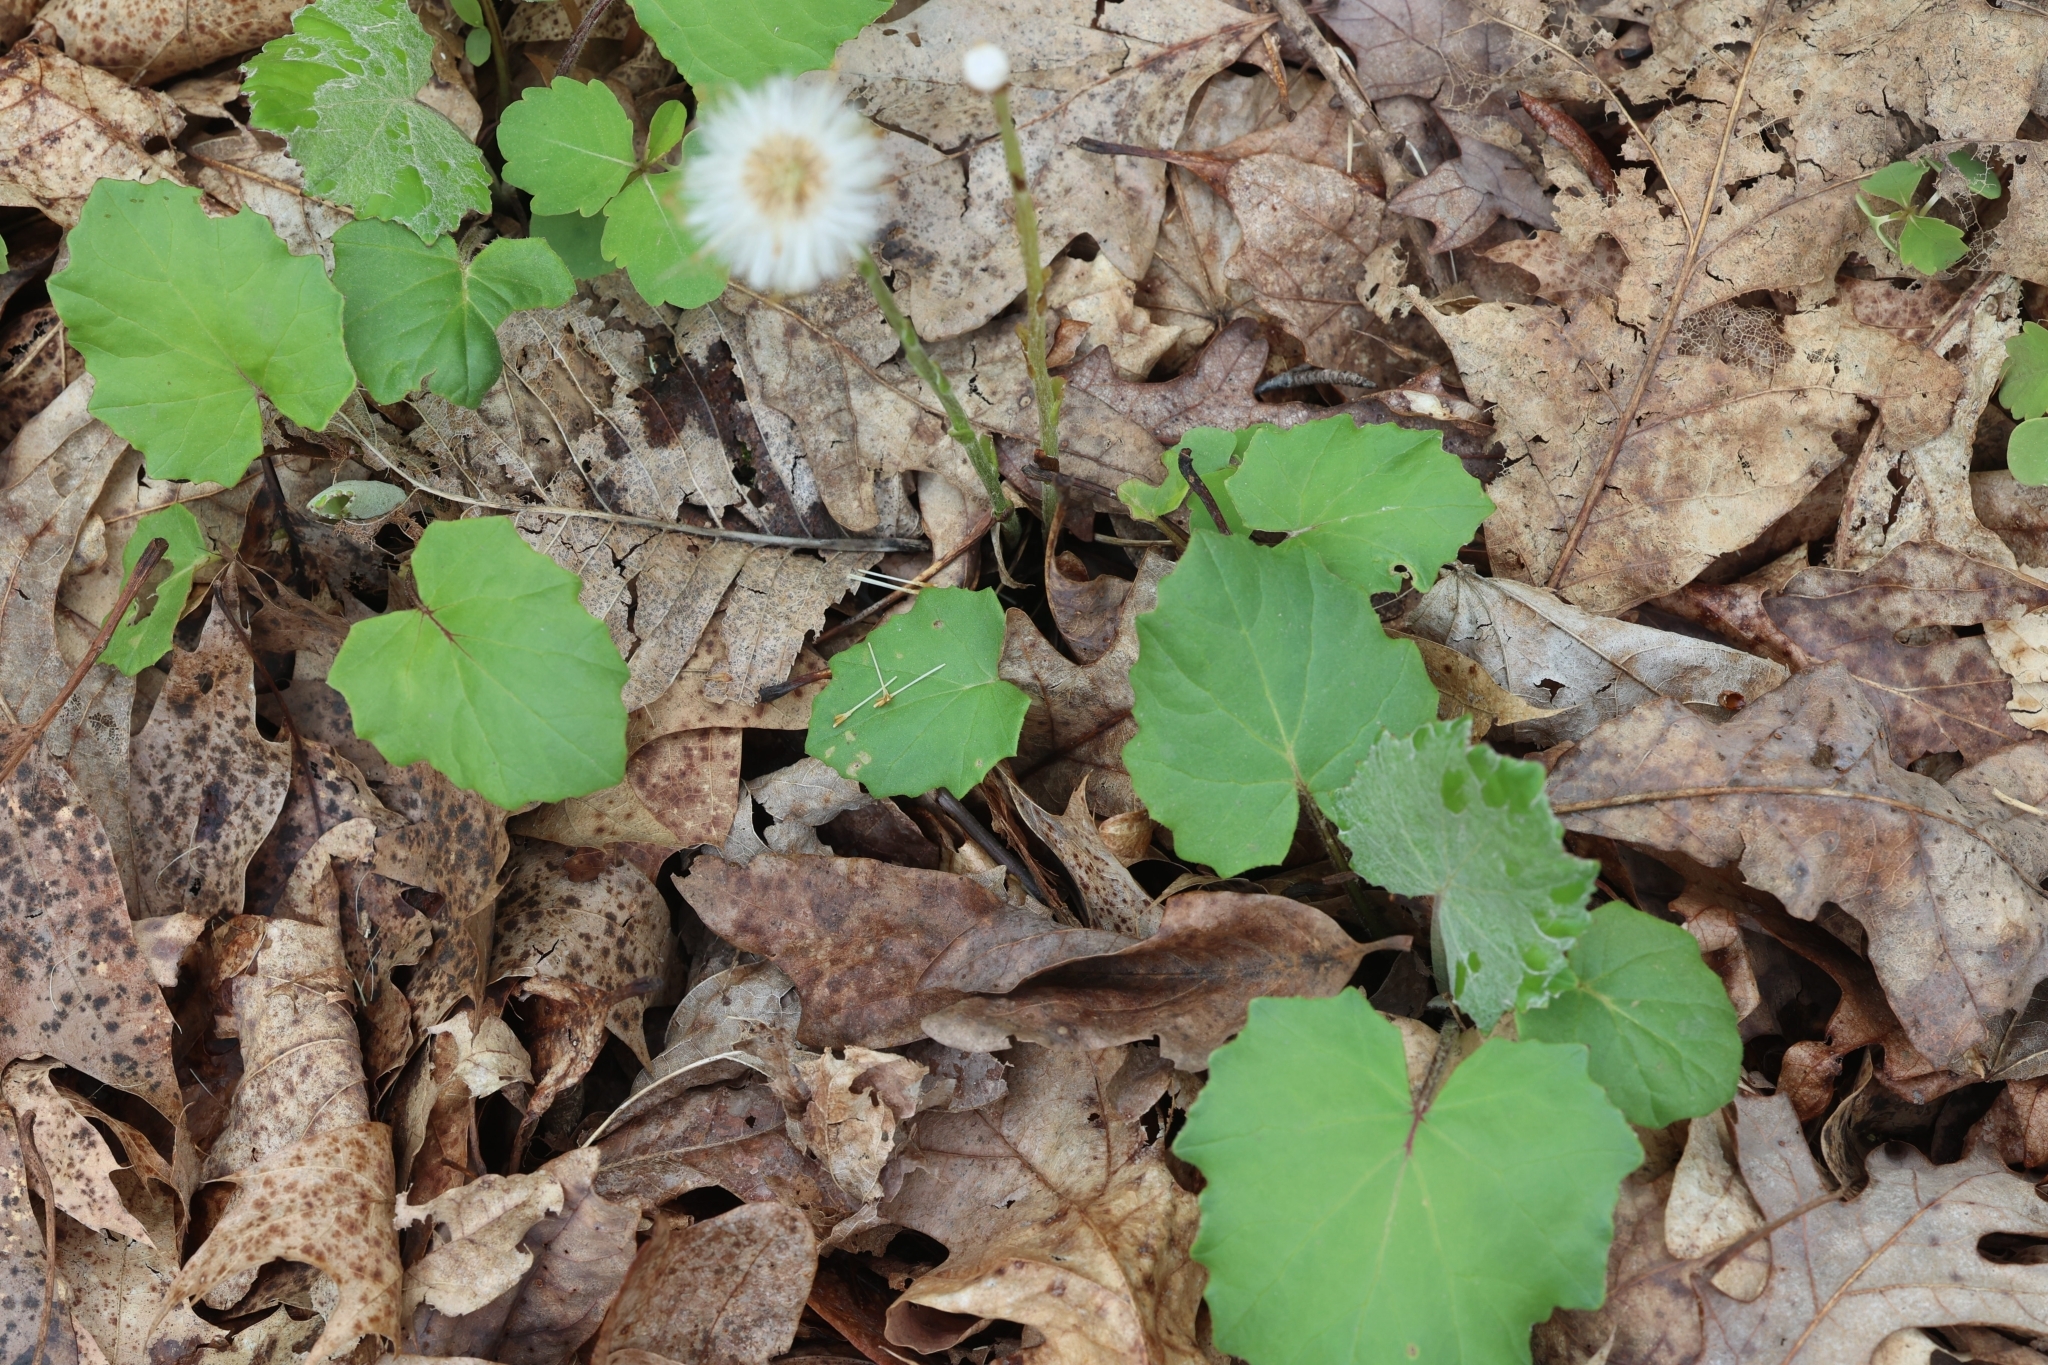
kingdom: Plantae
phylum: Tracheophyta
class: Magnoliopsida
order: Asterales
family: Asteraceae
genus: Tussilago
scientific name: Tussilago farfara
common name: Coltsfoot
